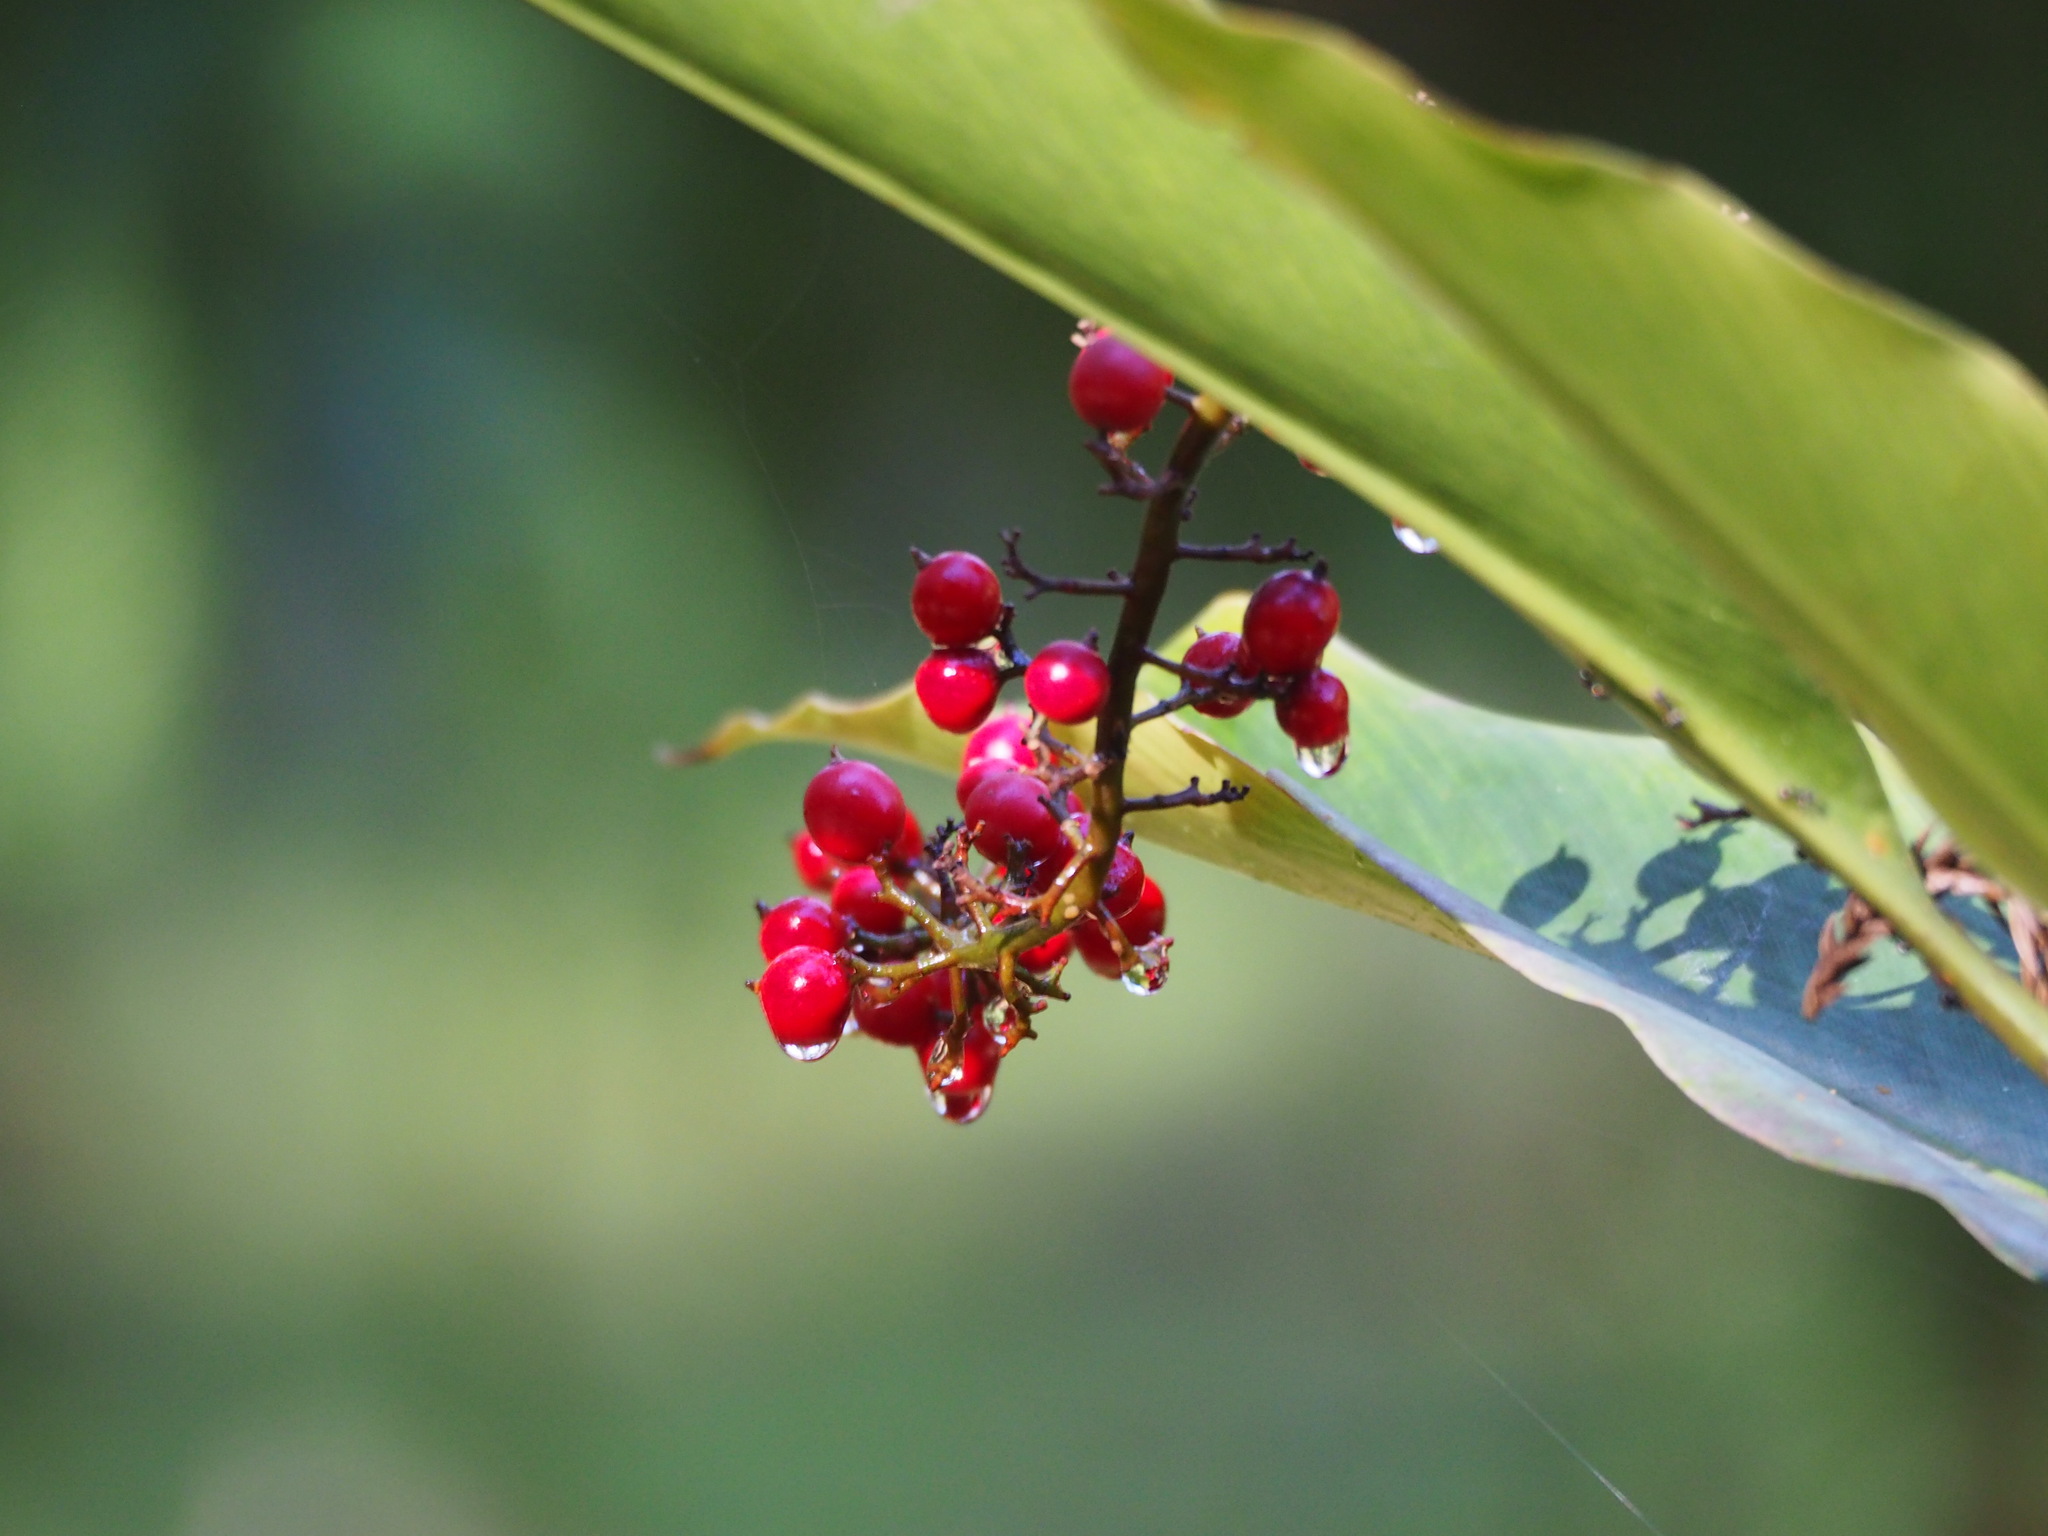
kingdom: Plantae
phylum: Tracheophyta
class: Liliopsida
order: Zingiberales
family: Zingiberaceae
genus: Alpinia
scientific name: Alpinia intermedia
